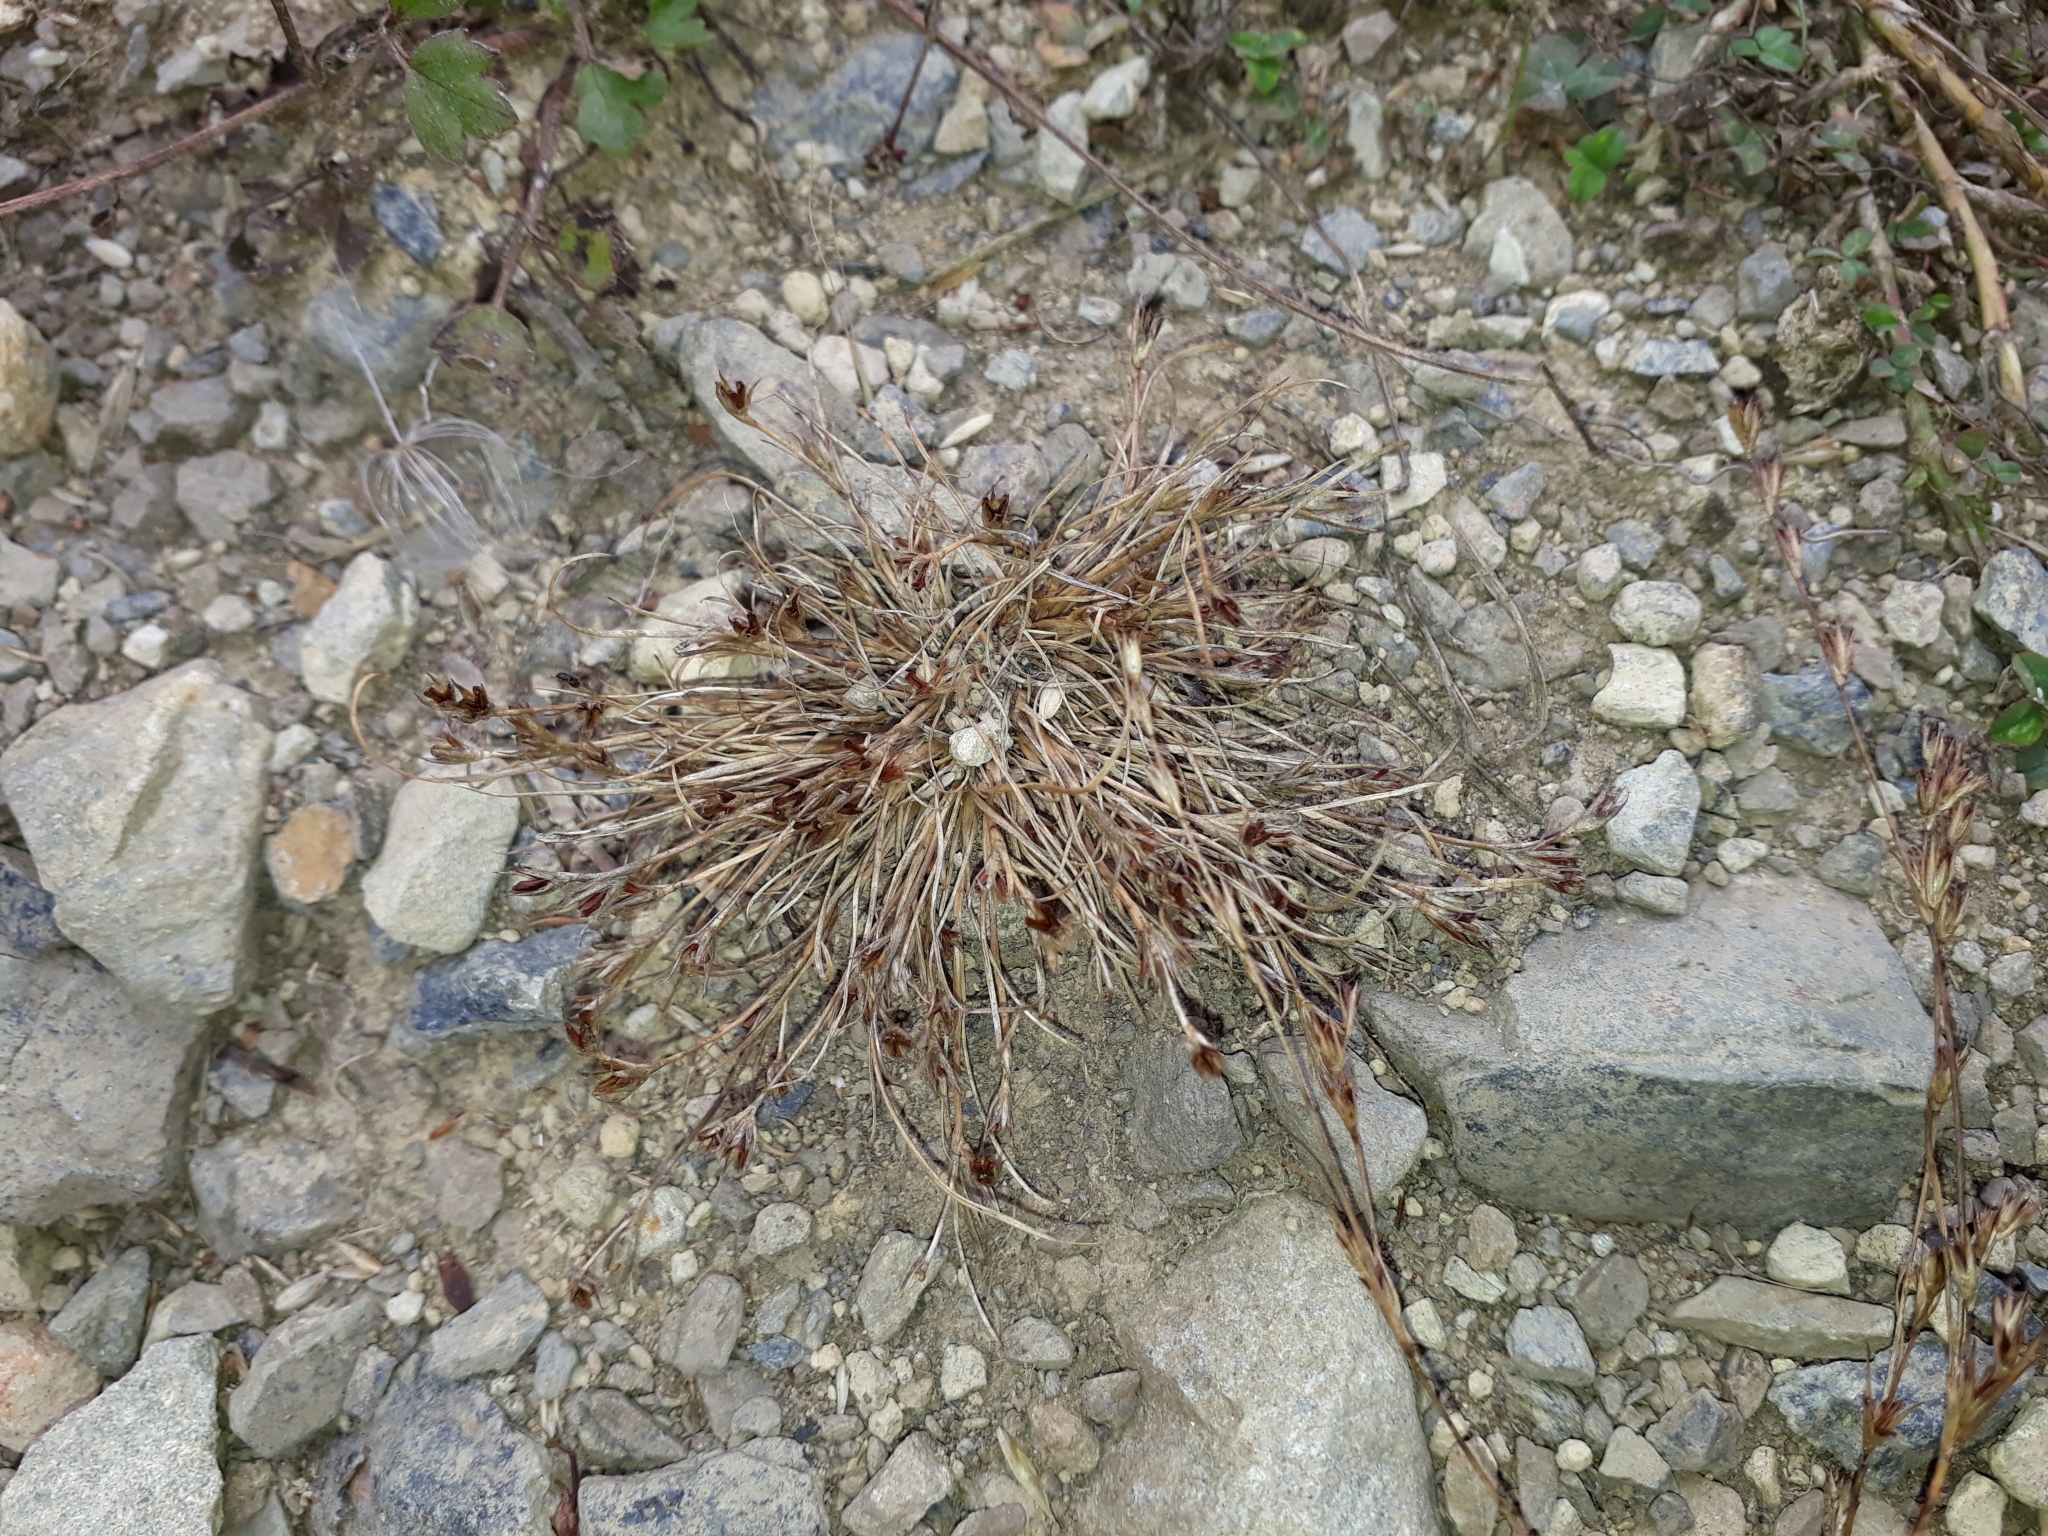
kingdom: Plantae
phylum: Tracheophyta
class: Liliopsida
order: Poales
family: Juncaceae
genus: Juncus
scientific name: Juncus bufonius
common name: Toad rush
